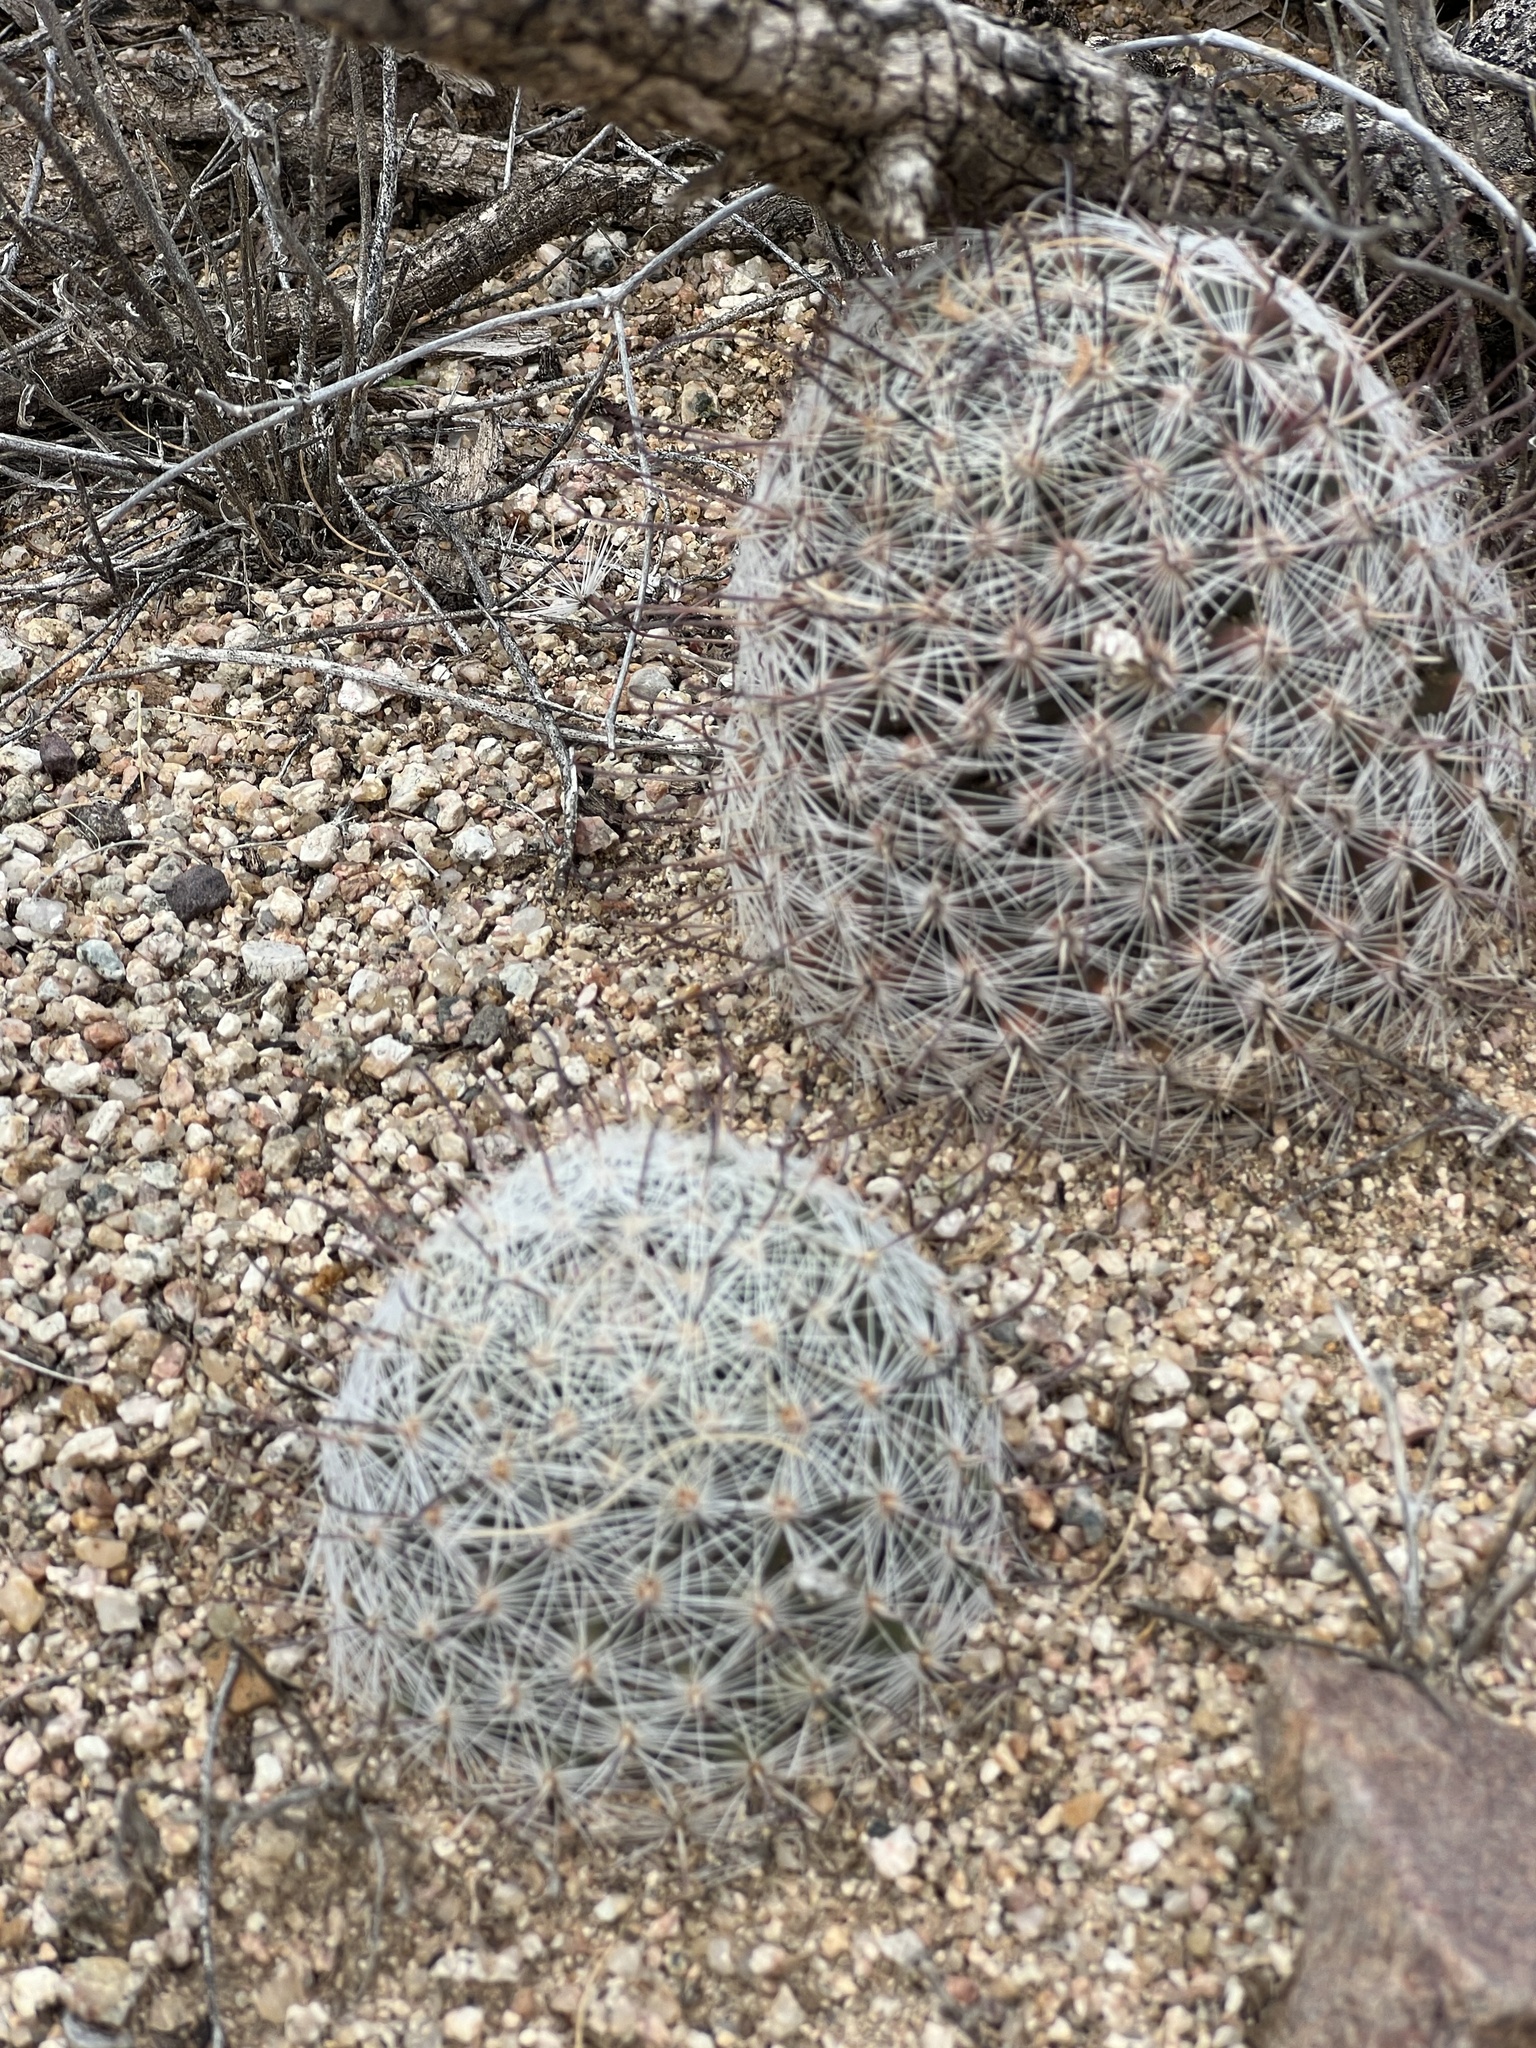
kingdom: Plantae
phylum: Tracheophyta
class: Magnoliopsida
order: Caryophyllales
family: Cactaceae
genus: Cochemiea
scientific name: Cochemiea grahamii
